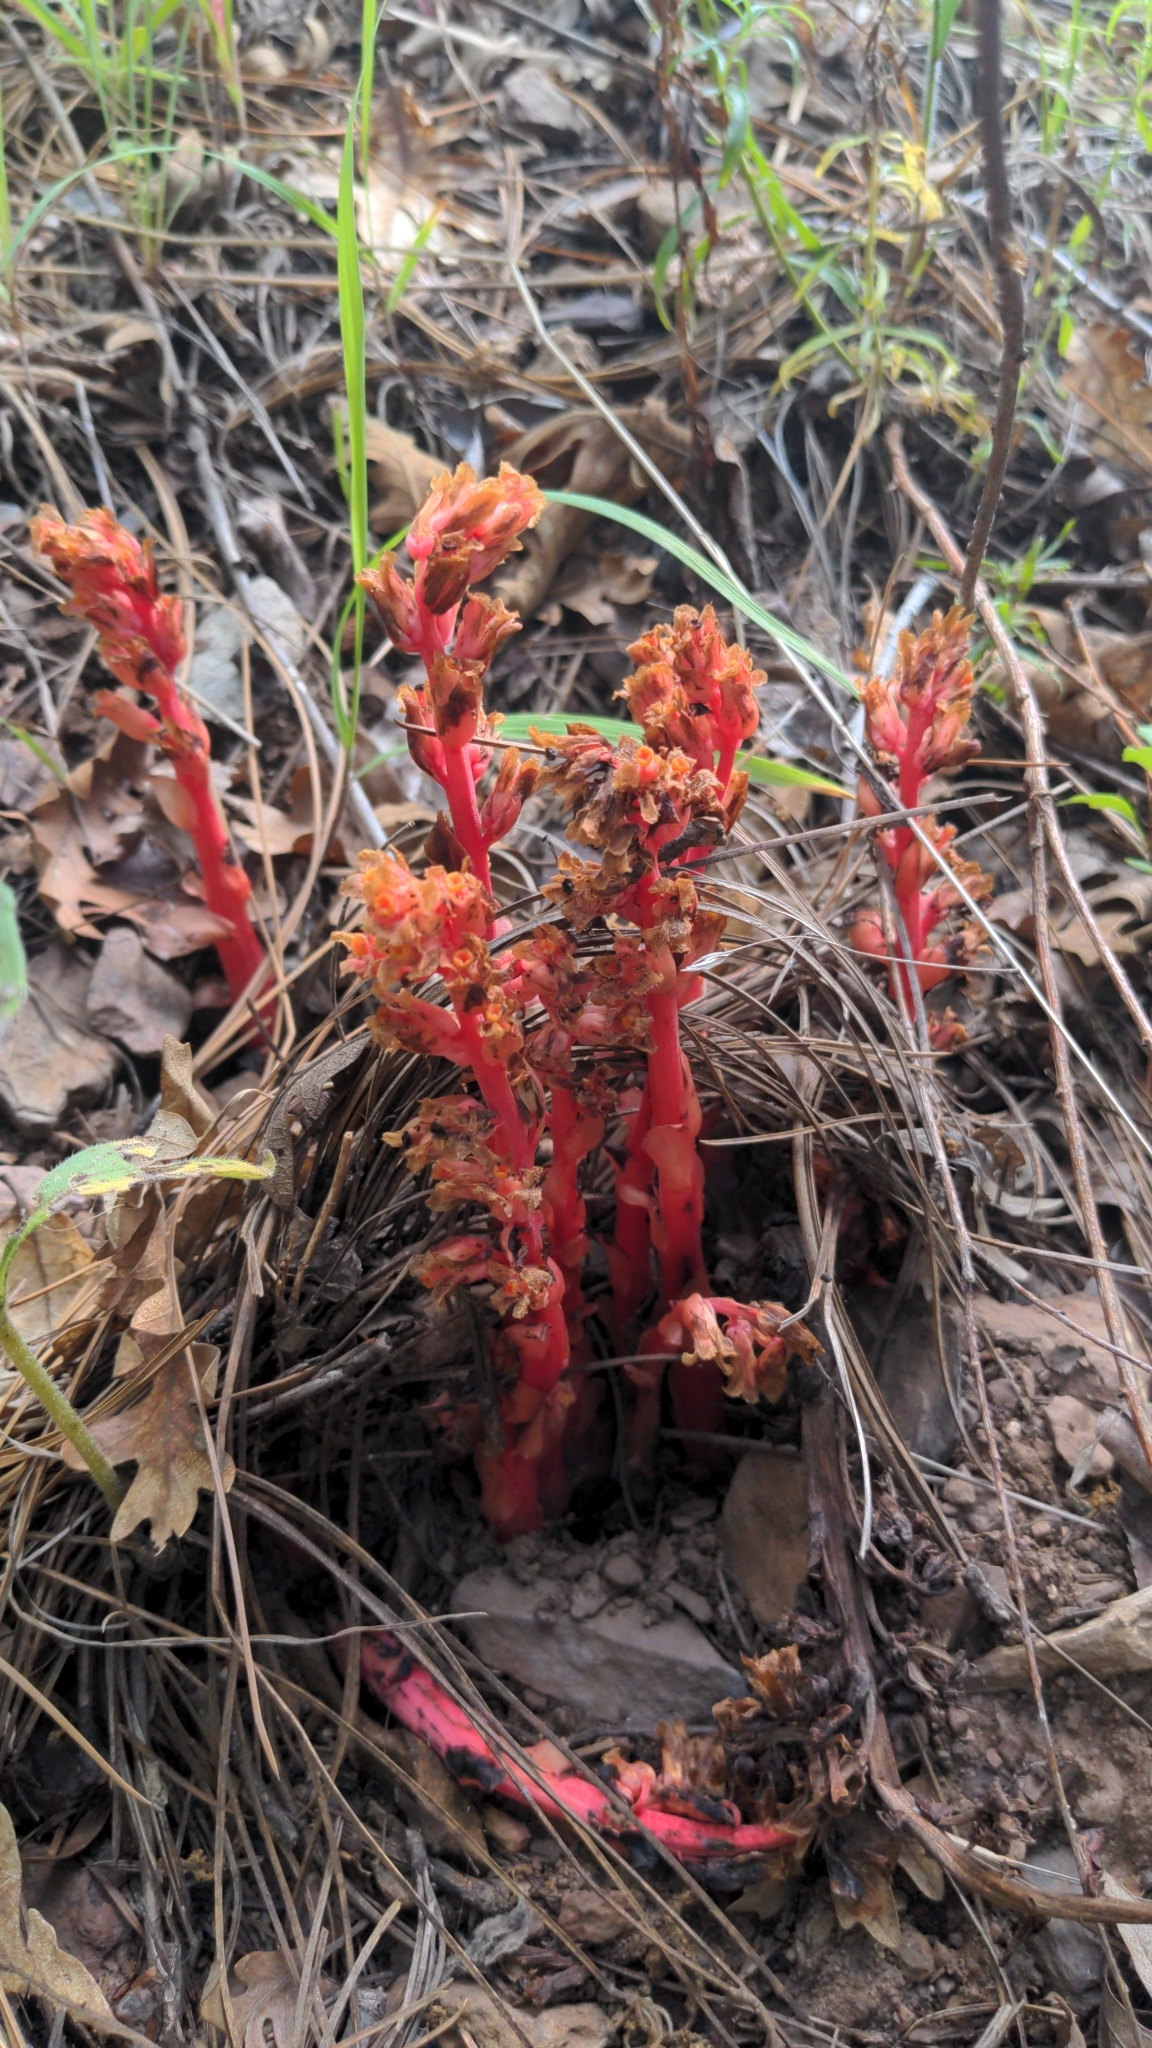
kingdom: Plantae
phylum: Tracheophyta
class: Magnoliopsida
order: Ericales
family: Ericaceae
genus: Hypopitys
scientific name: Hypopitys monotropa
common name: Yellow bird's-nest
